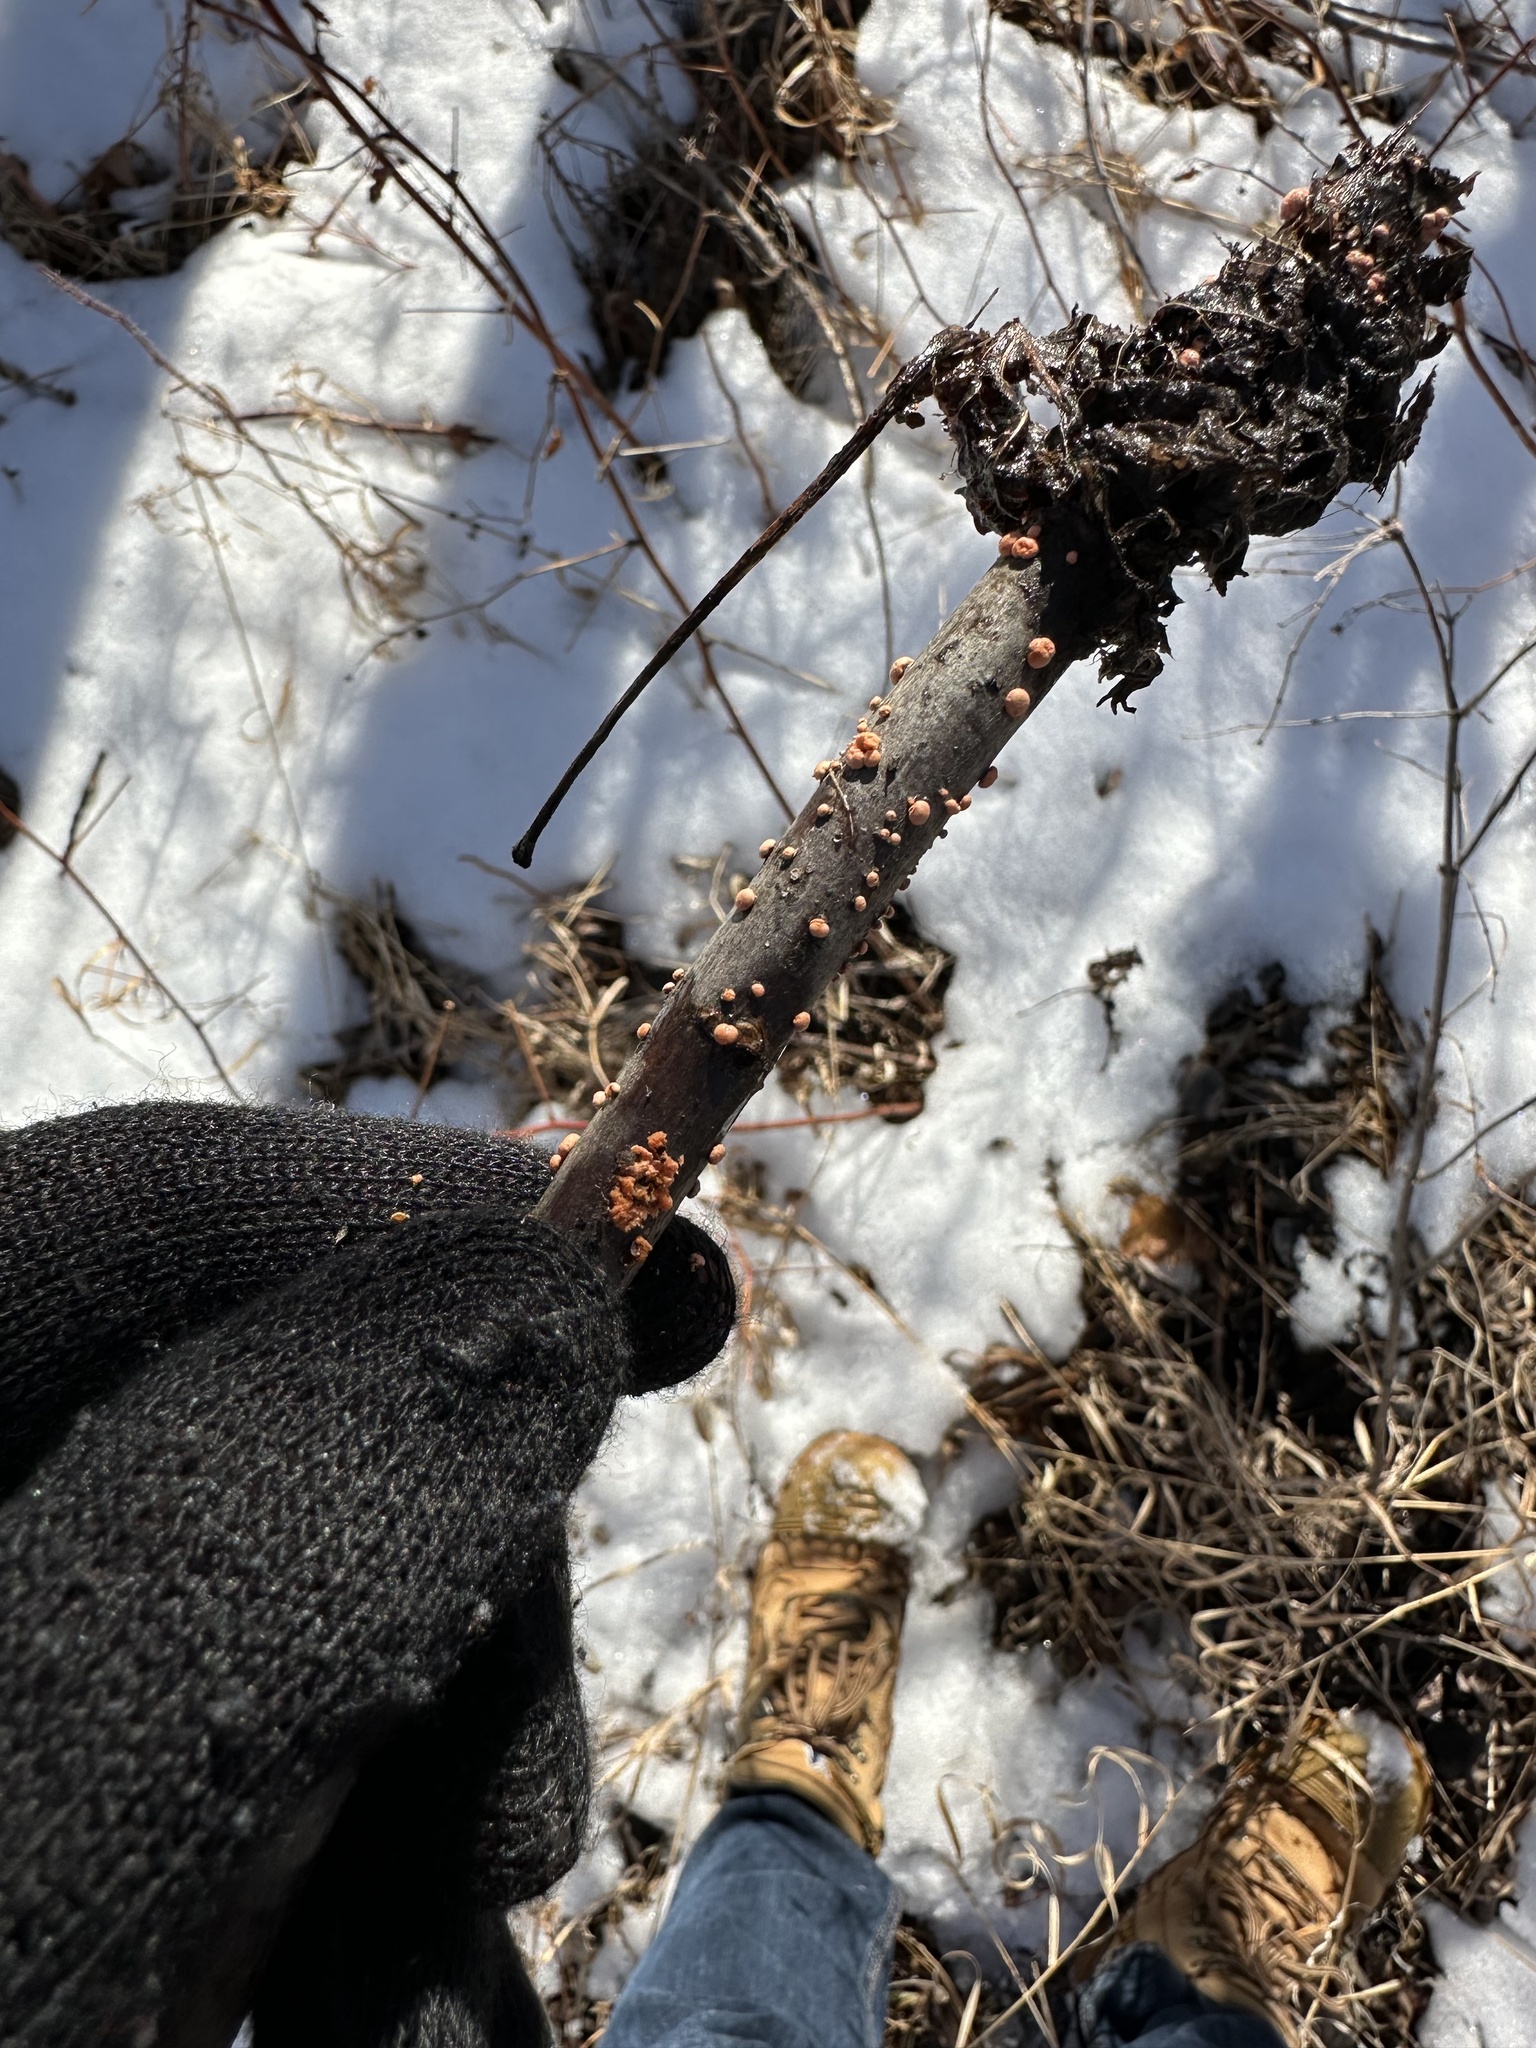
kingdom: Fungi
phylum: Ascomycota
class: Sordariomycetes
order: Hypocreales
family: Nectriaceae
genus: Nectria
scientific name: Nectria cinnabarina
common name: Coral spot
